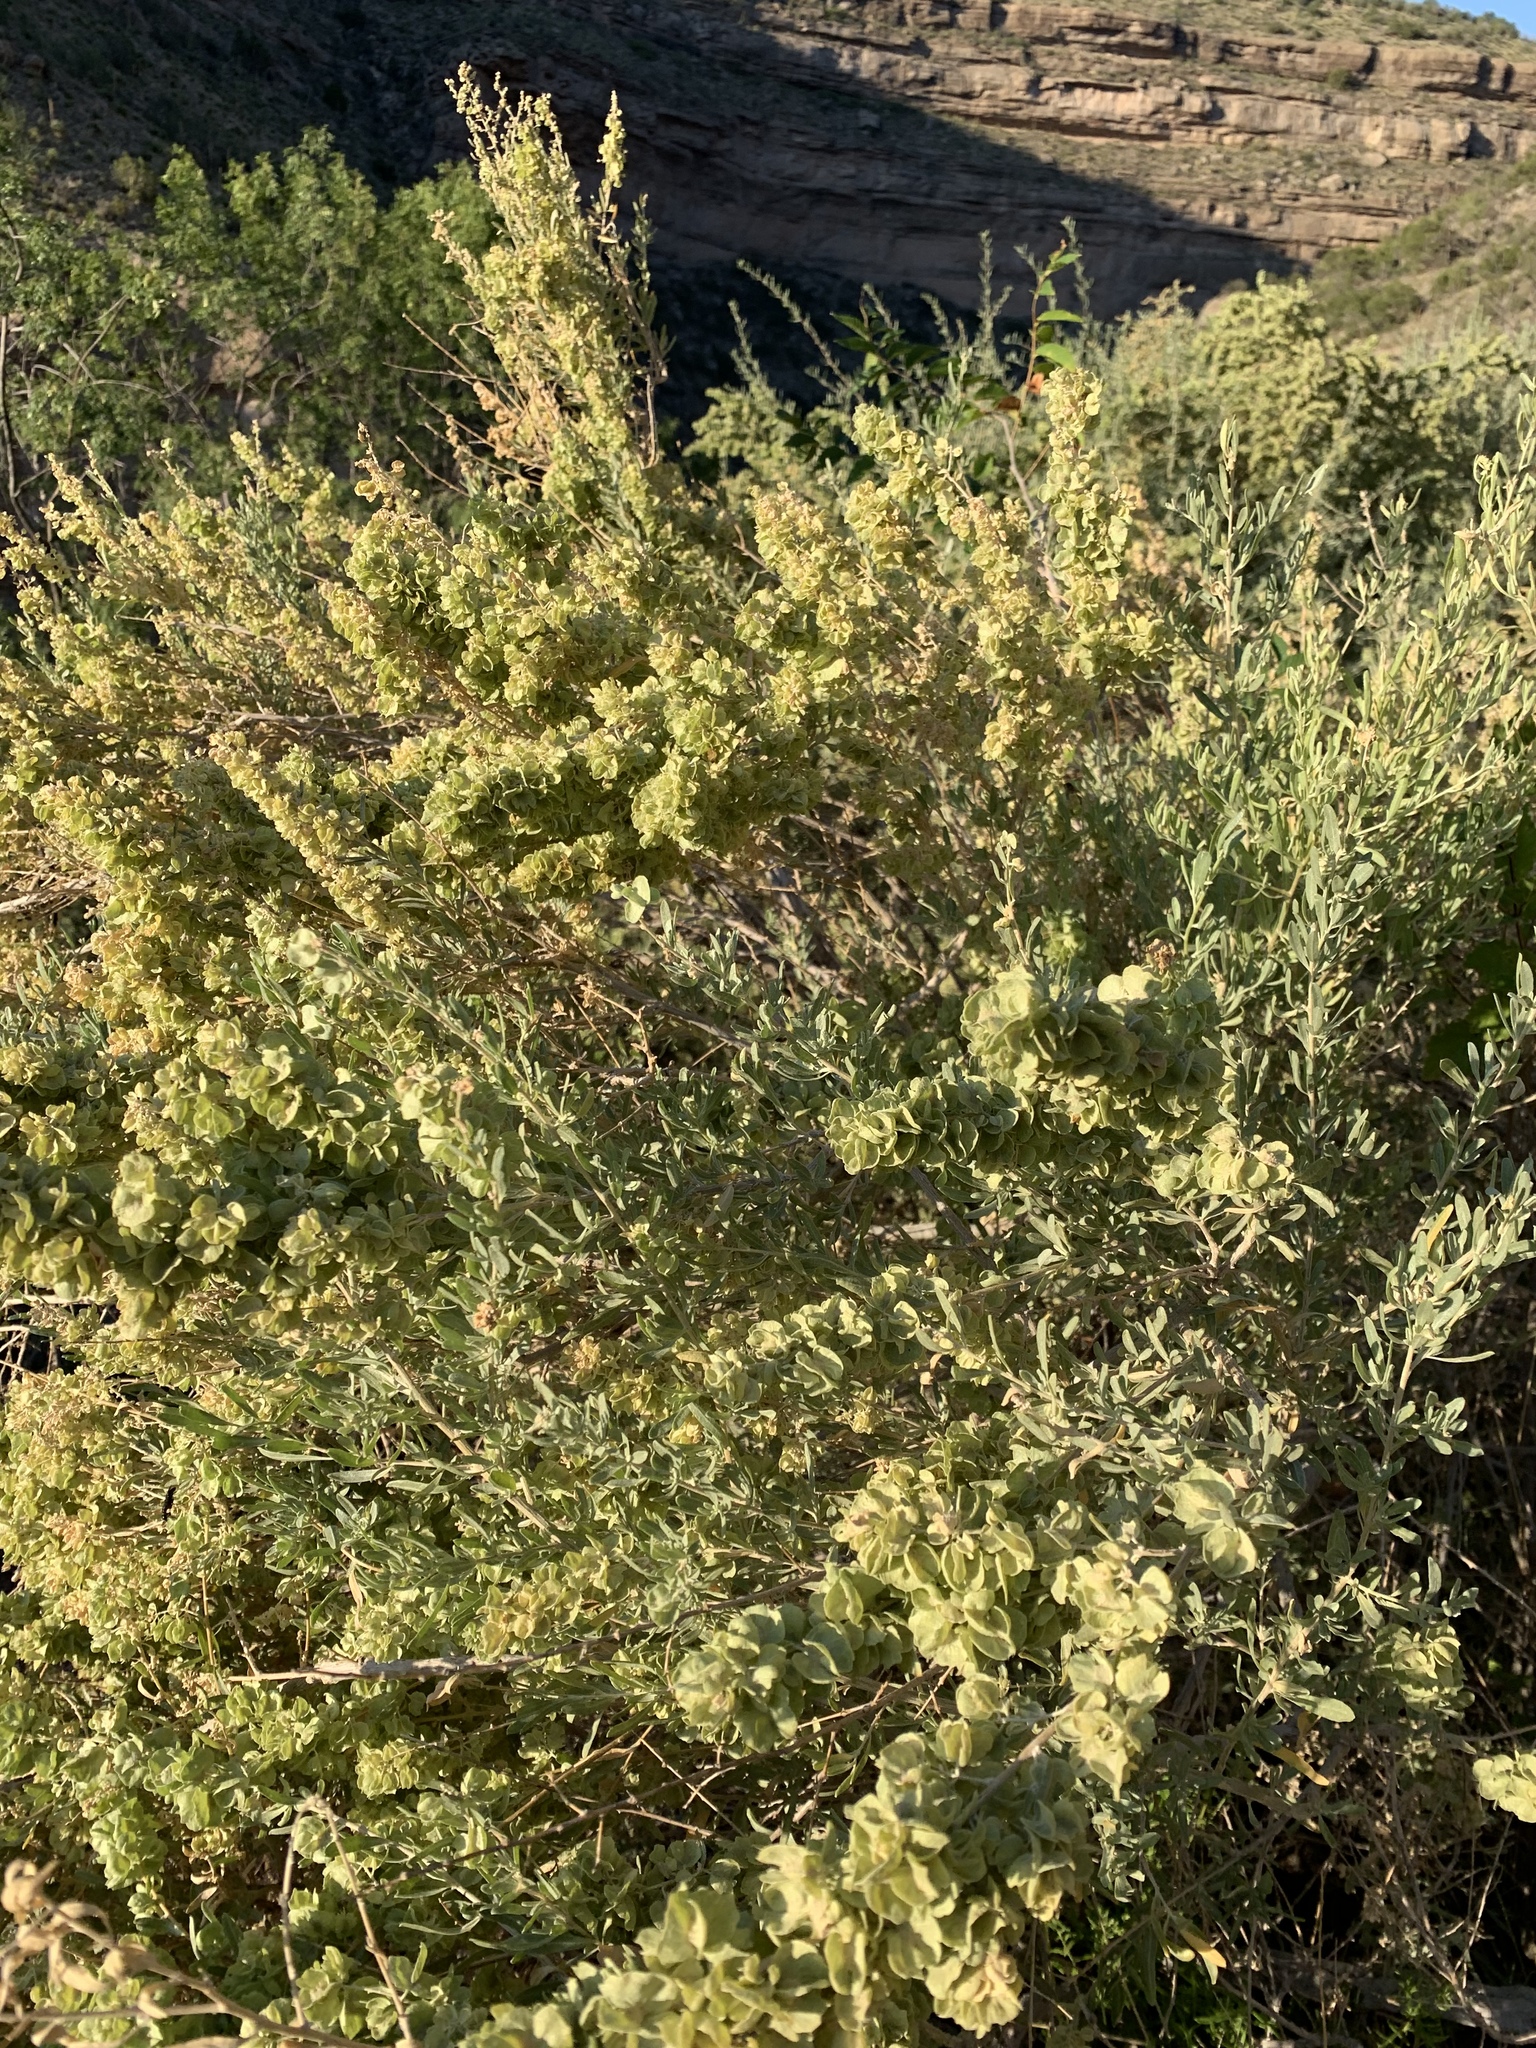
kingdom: Plantae
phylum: Tracheophyta
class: Magnoliopsida
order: Caryophyllales
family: Amaranthaceae
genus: Atriplex
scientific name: Atriplex canescens
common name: Four-wing saltbush
